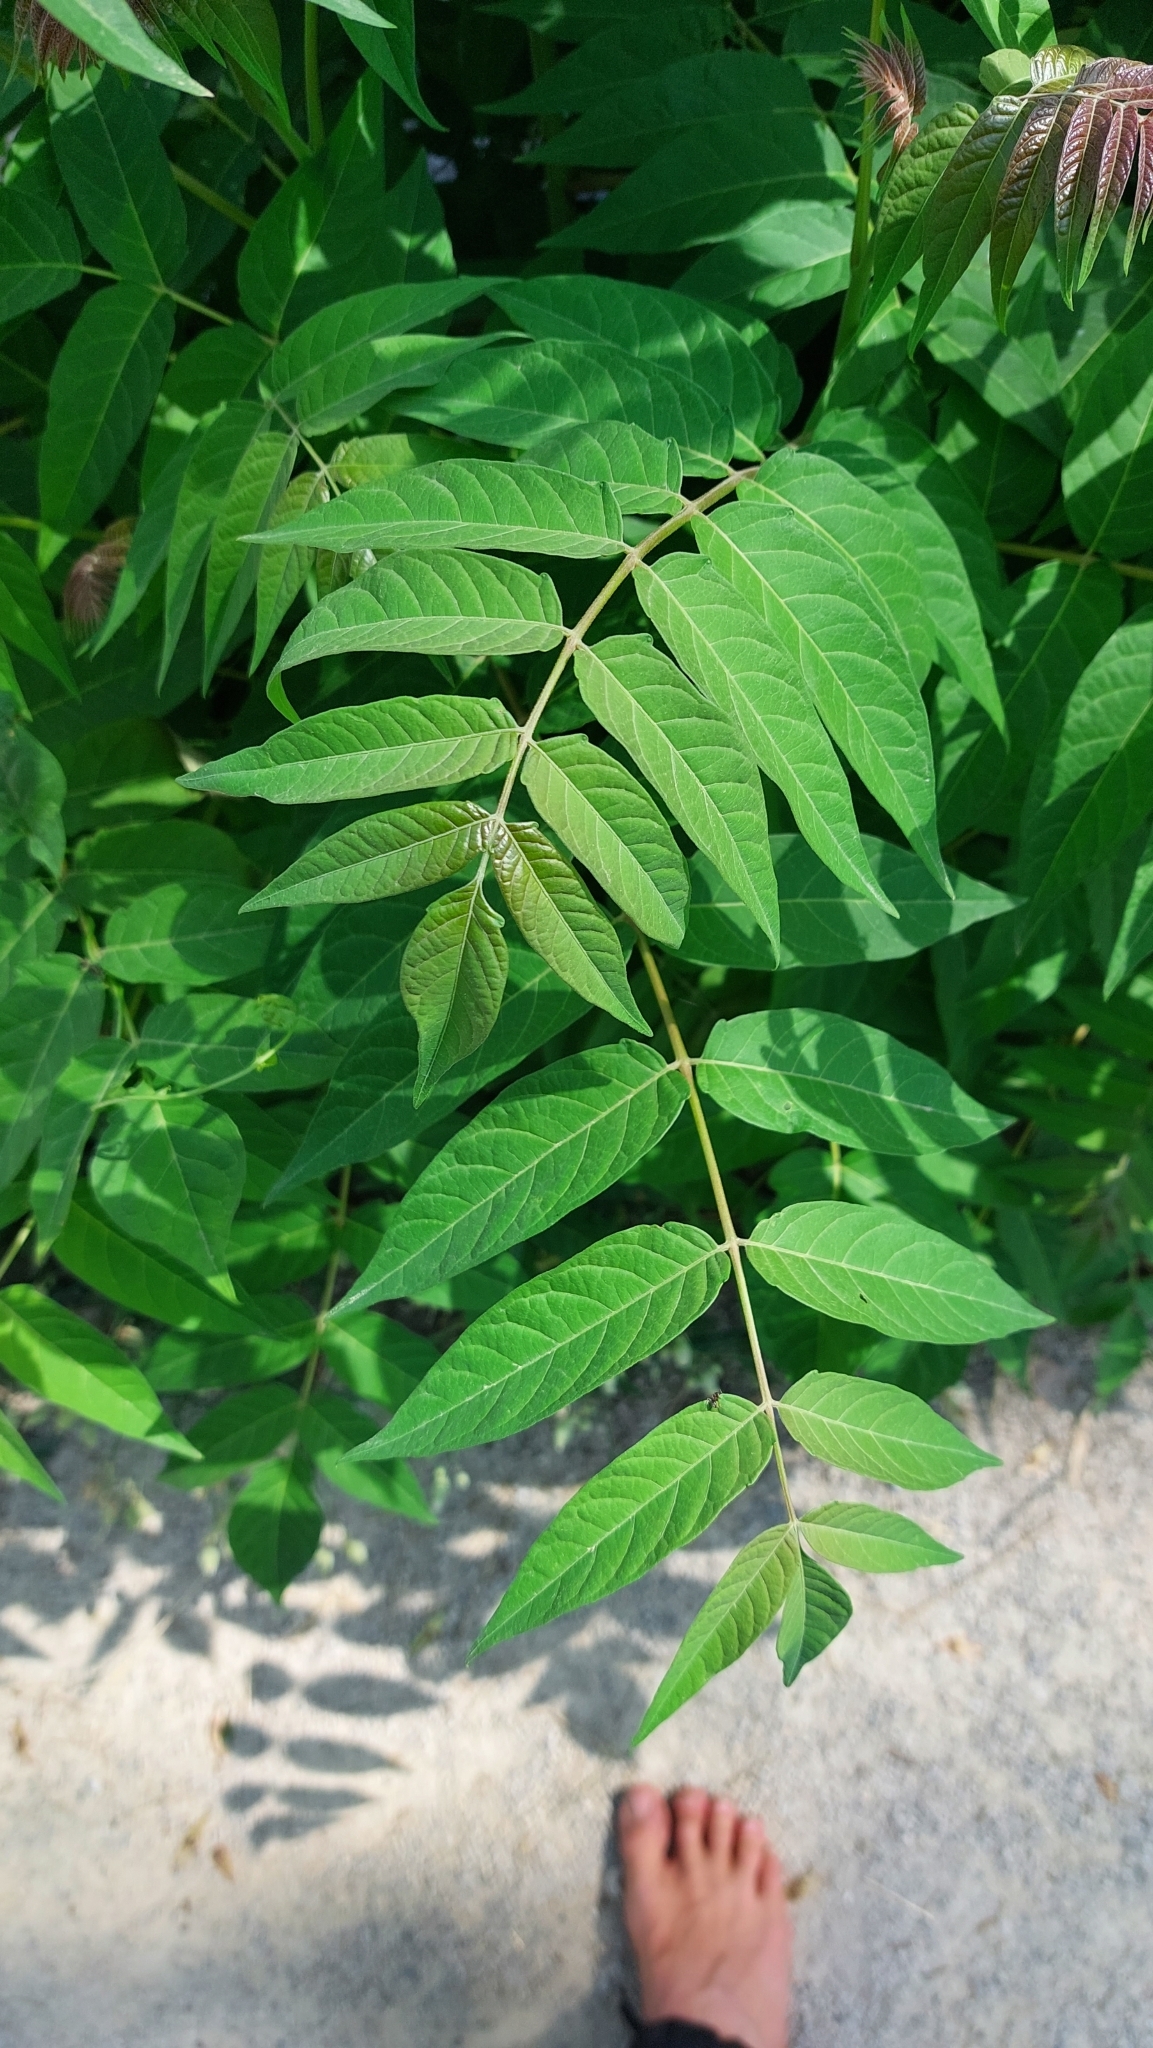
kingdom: Plantae
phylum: Tracheophyta
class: Magnoliopsida
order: Sapindales
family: Simaroubaceae
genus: Ailanthus
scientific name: Ailanthus altissima
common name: Tree-of-heaven
